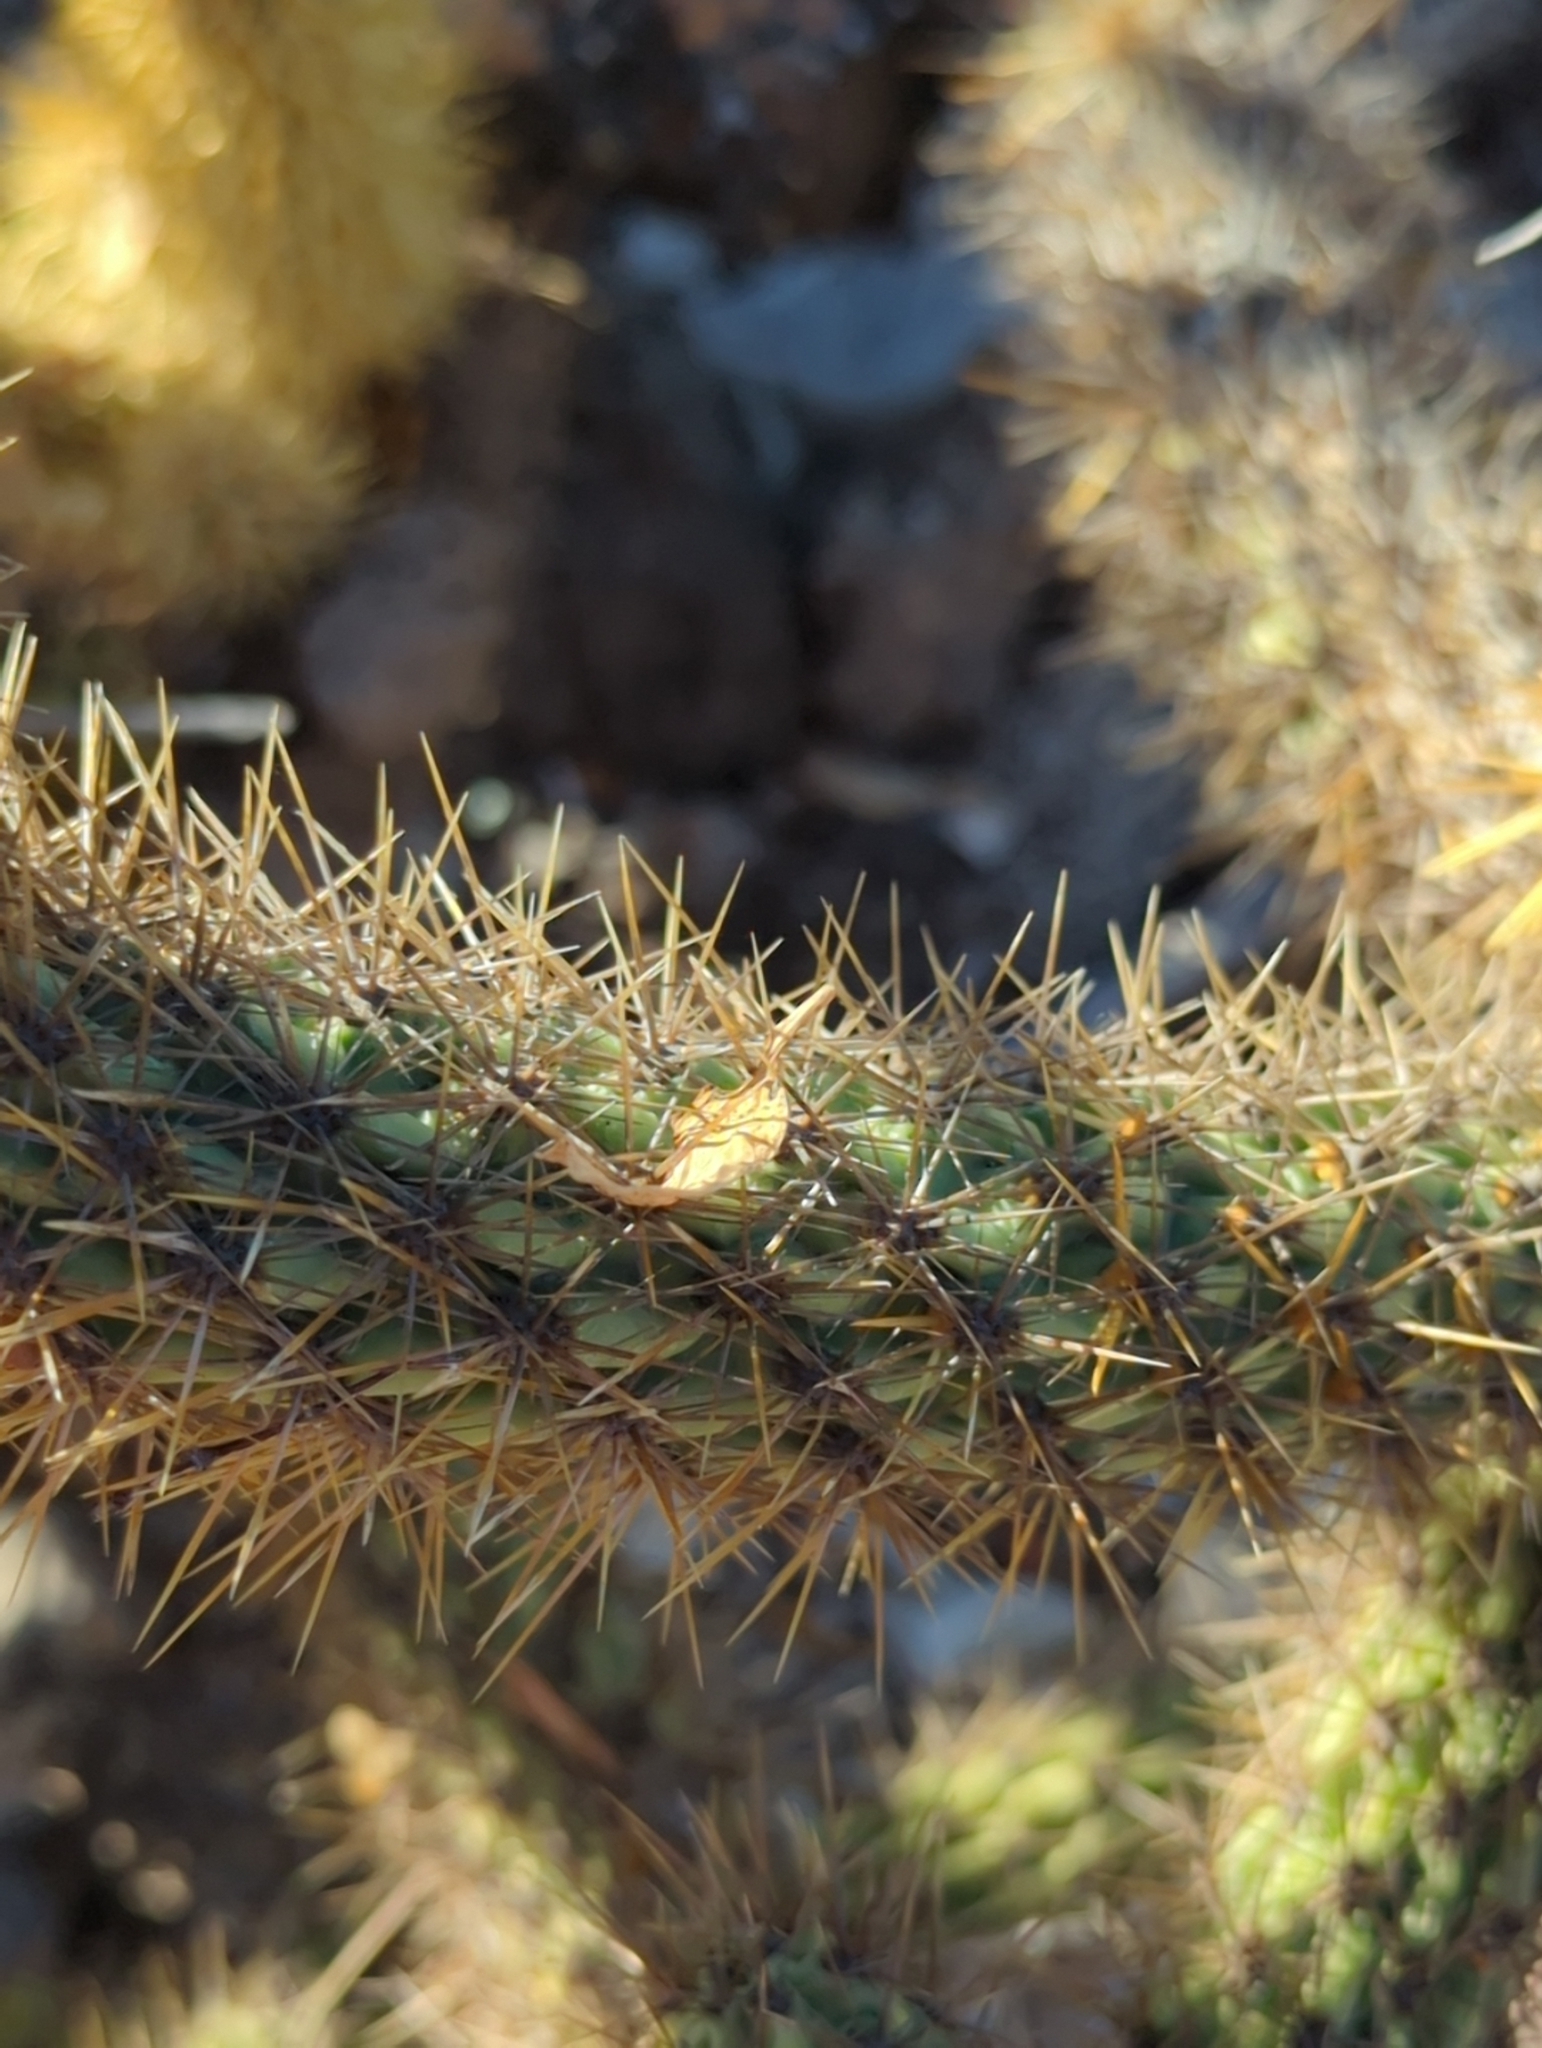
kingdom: Plantae
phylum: Tracheophyta
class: Magnoliopsida
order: Caryophyllales
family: Cactaceae
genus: Cylindropuntia
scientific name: Cylindropuntia alcahes
